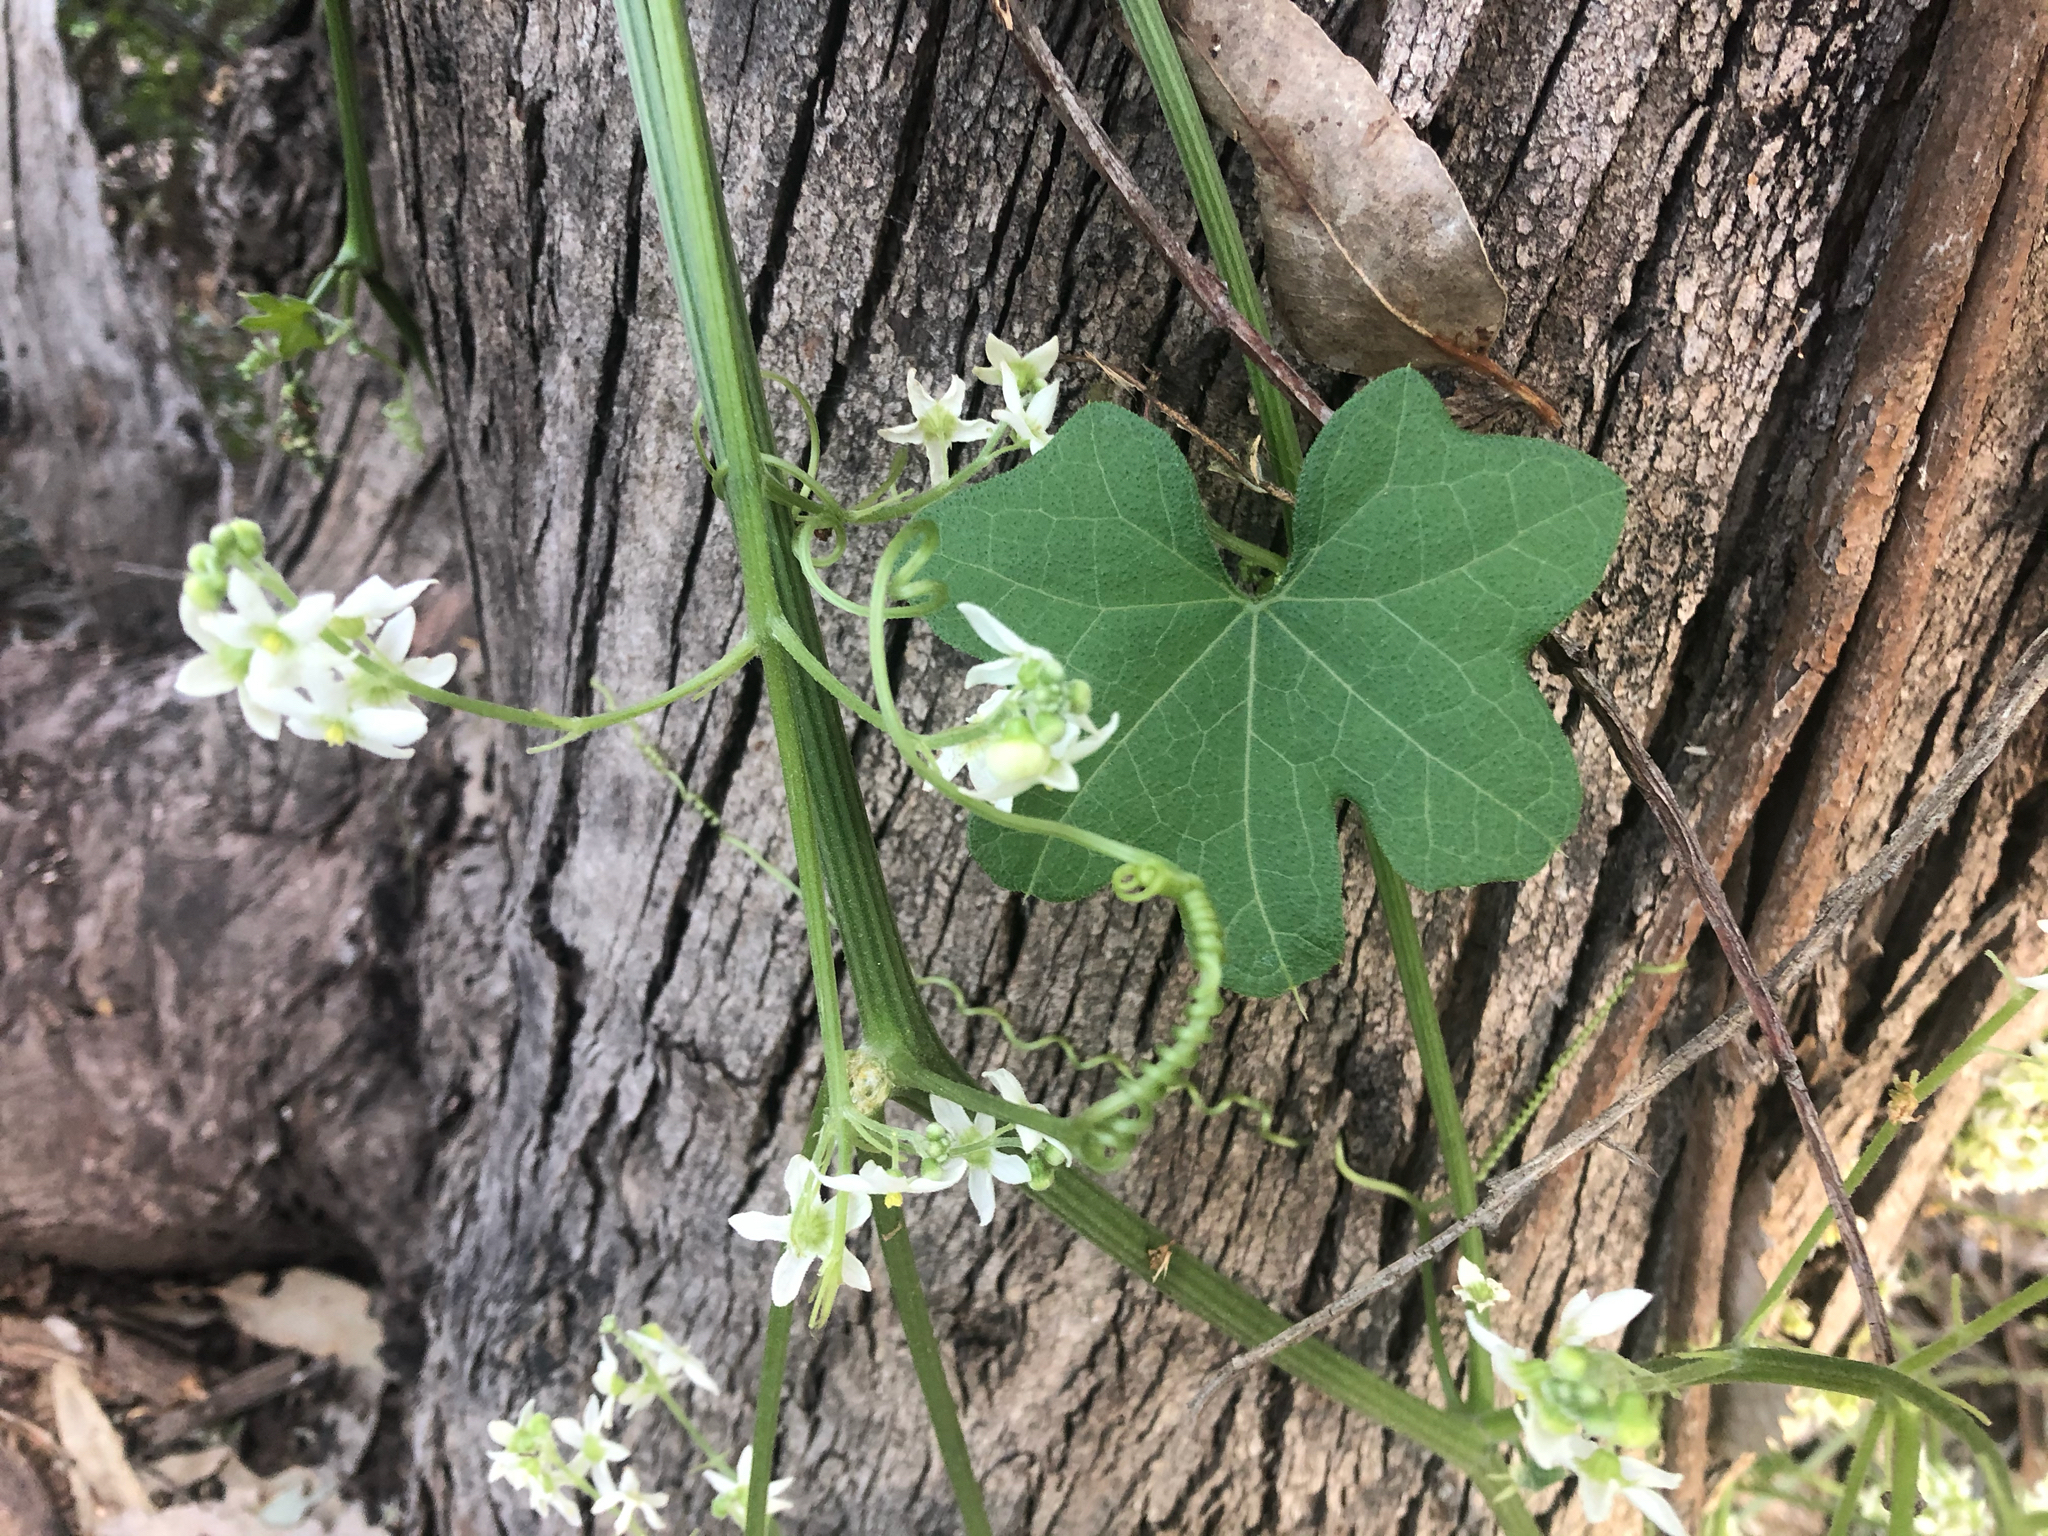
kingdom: Plantae
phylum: Tracheophyta
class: Magnoliopsida
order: Cucurbitales
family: Cucurbitaceae
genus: Marah
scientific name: Marah macrocarpa
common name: Cucamonga manroot
